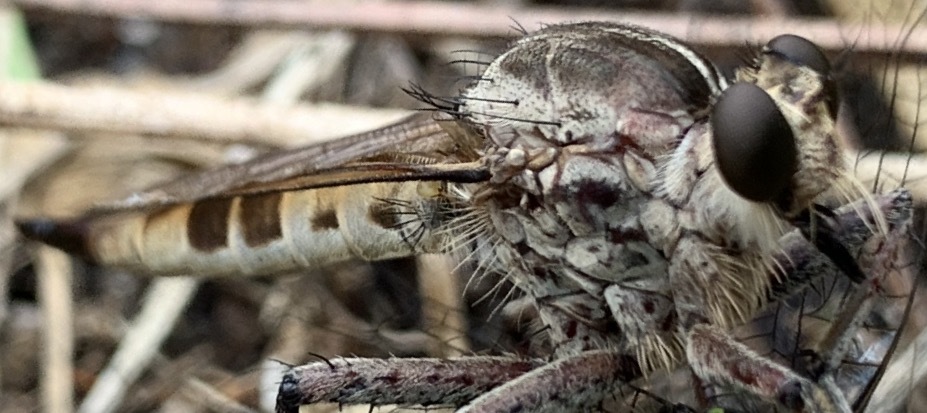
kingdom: Animalia
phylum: Arthropoda
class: Insecta
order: Diptera
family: Asilidae
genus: Triorla
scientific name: Triorla interrupta
